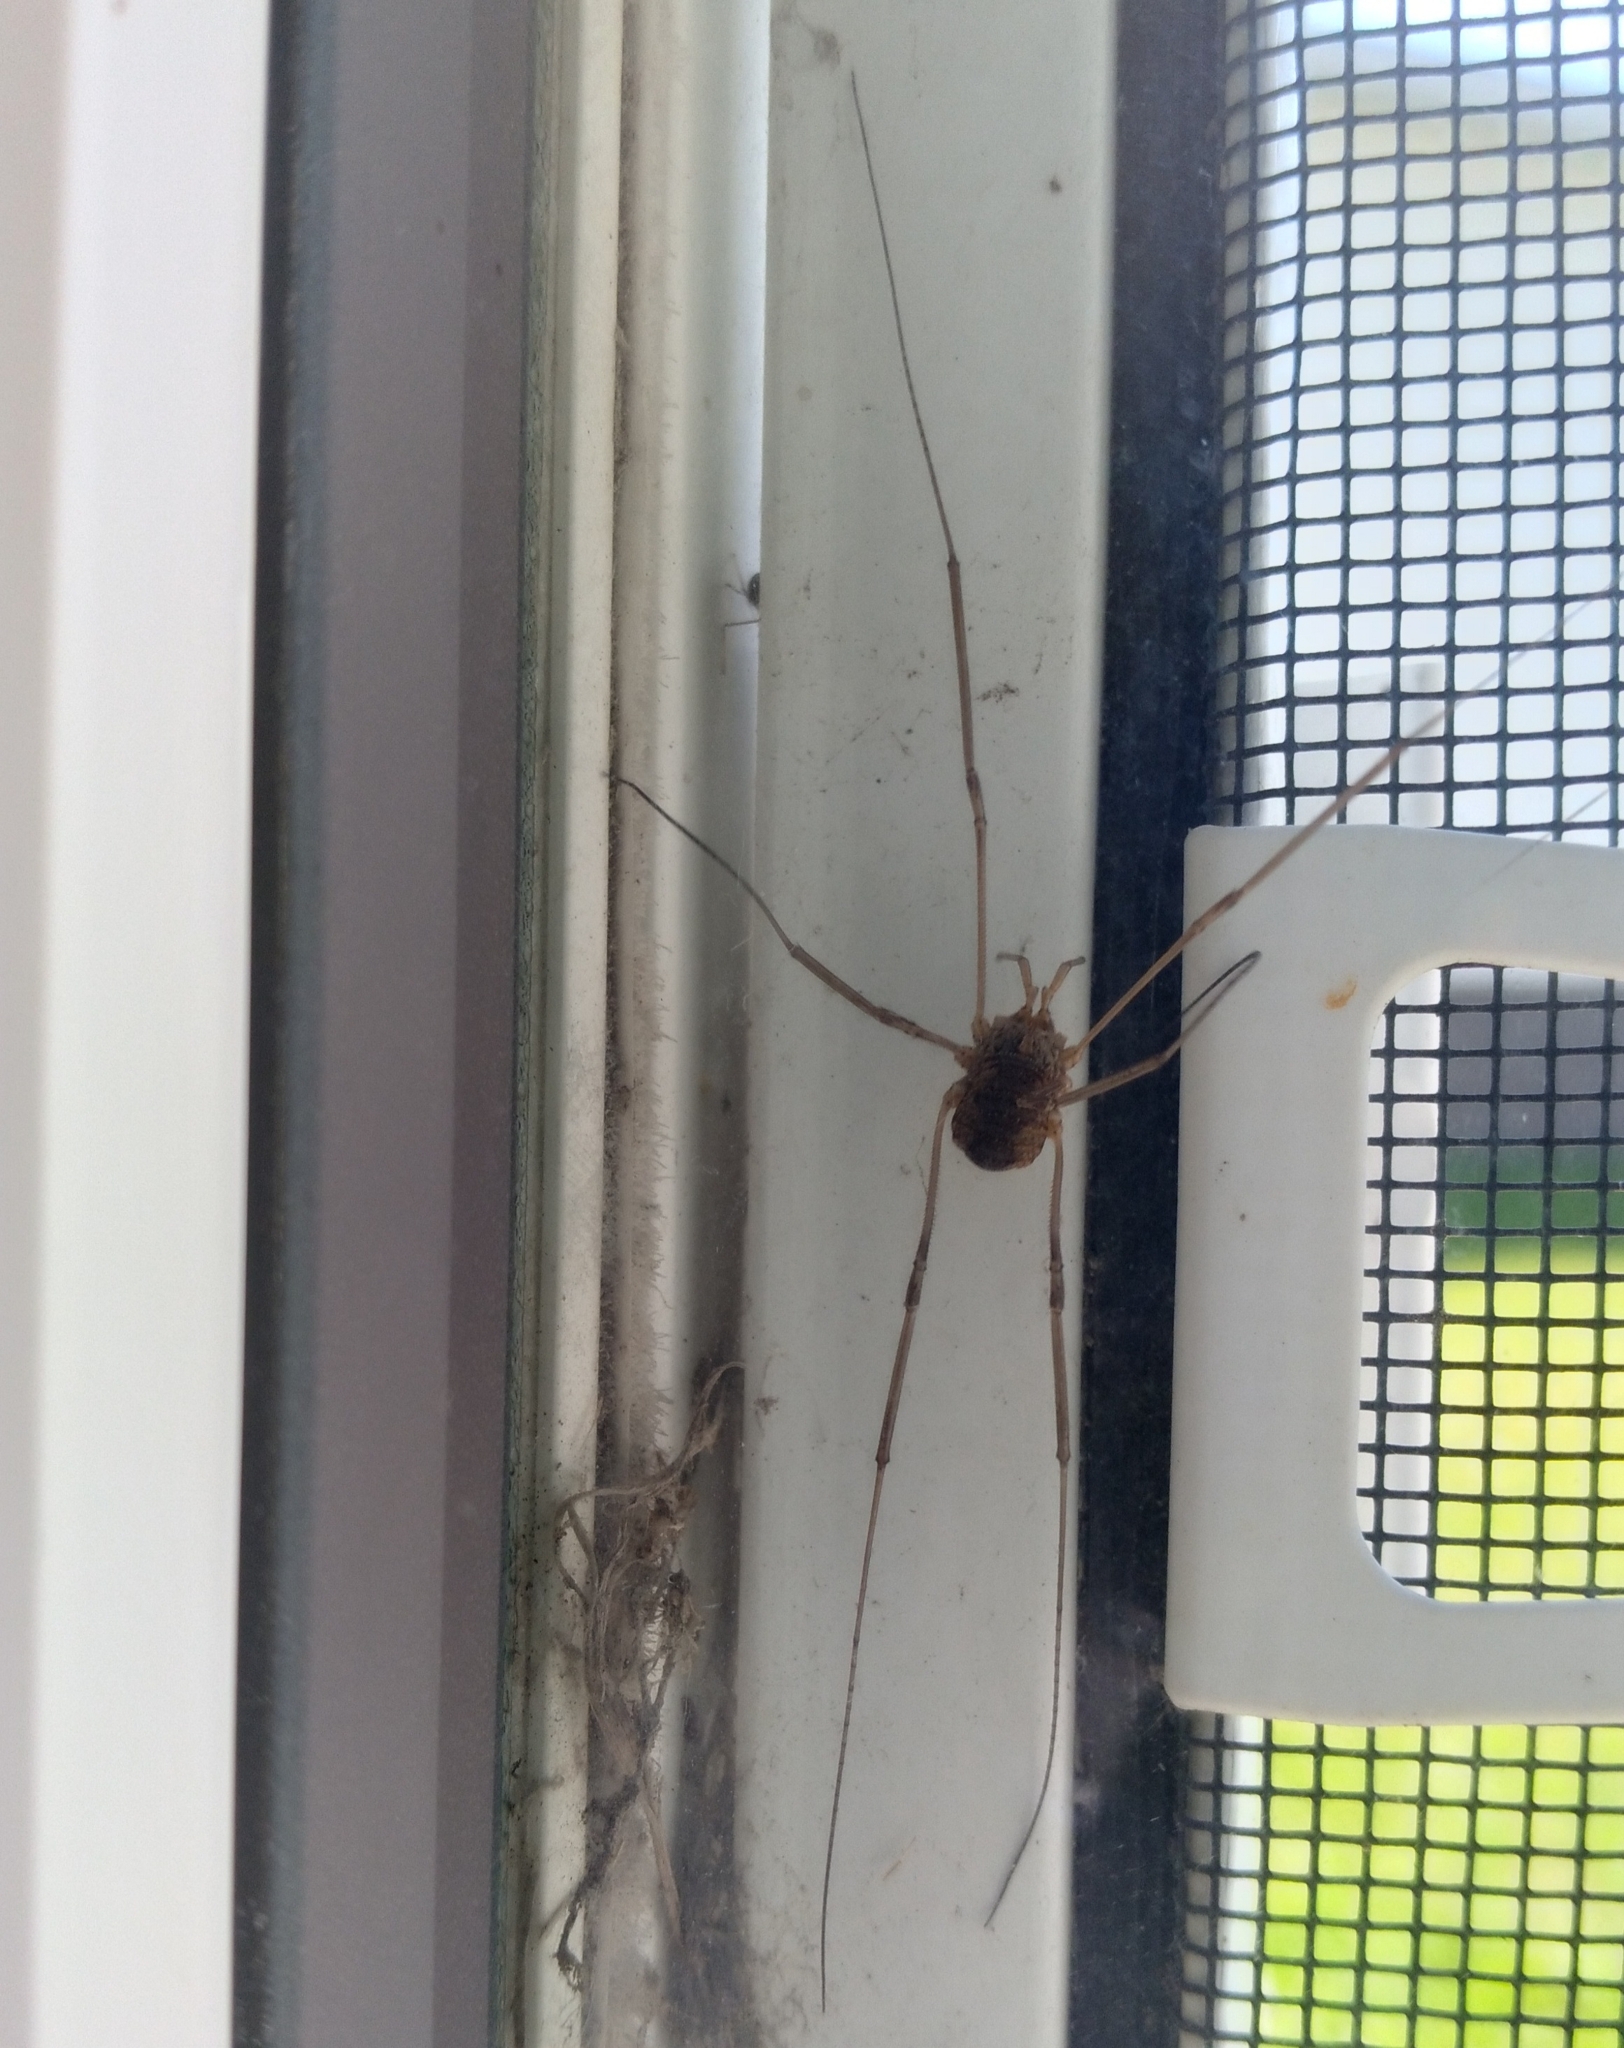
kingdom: Animalia
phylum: Arthropoda
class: Arachnida
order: Opiliones
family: Phalangiidae
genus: Phalangium
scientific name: Phalangium opilio
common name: Daddy longleg
